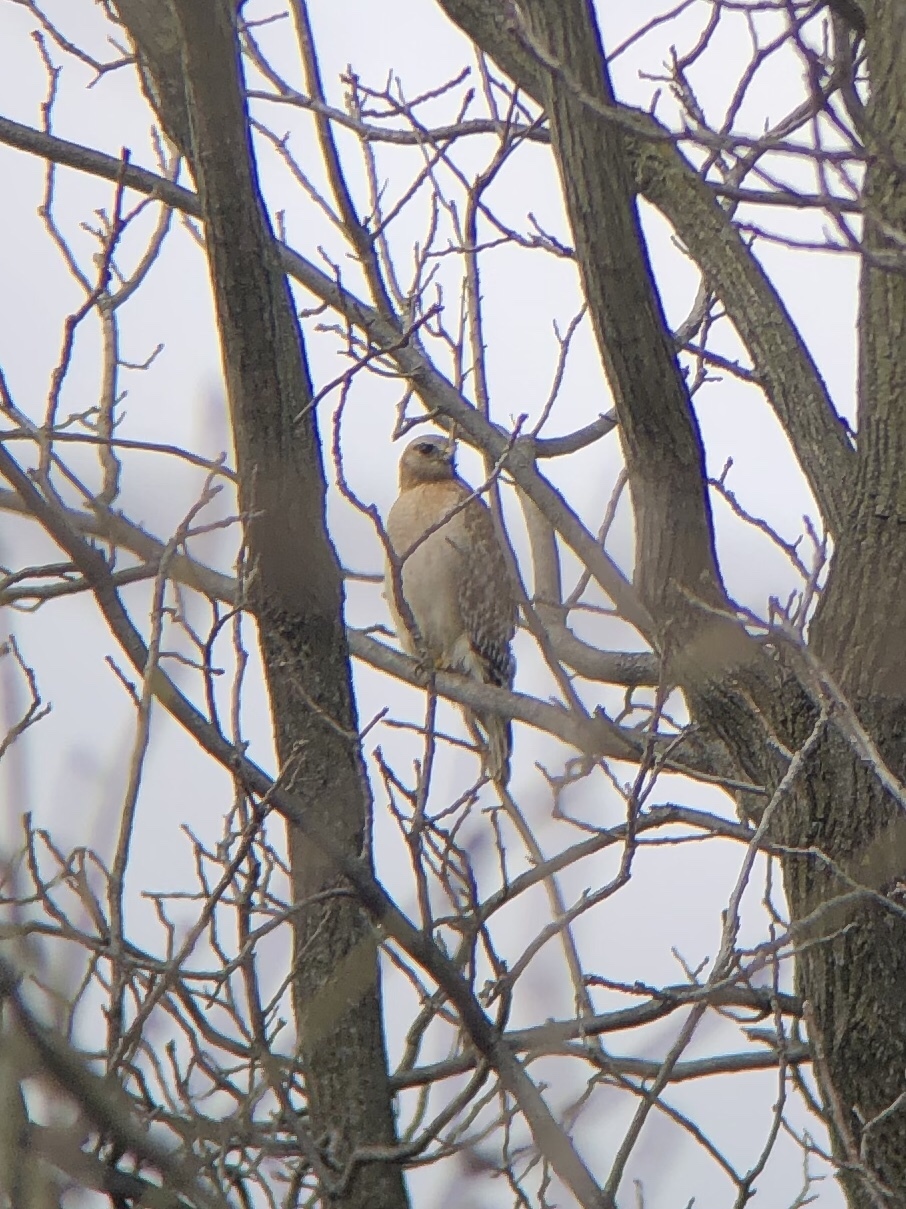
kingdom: Animalia
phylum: Chordata
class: Aves
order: Accipitriformes
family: Accipitridae
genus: Buteo
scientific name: Buteo lineatus
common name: Red-shouldered hawk
